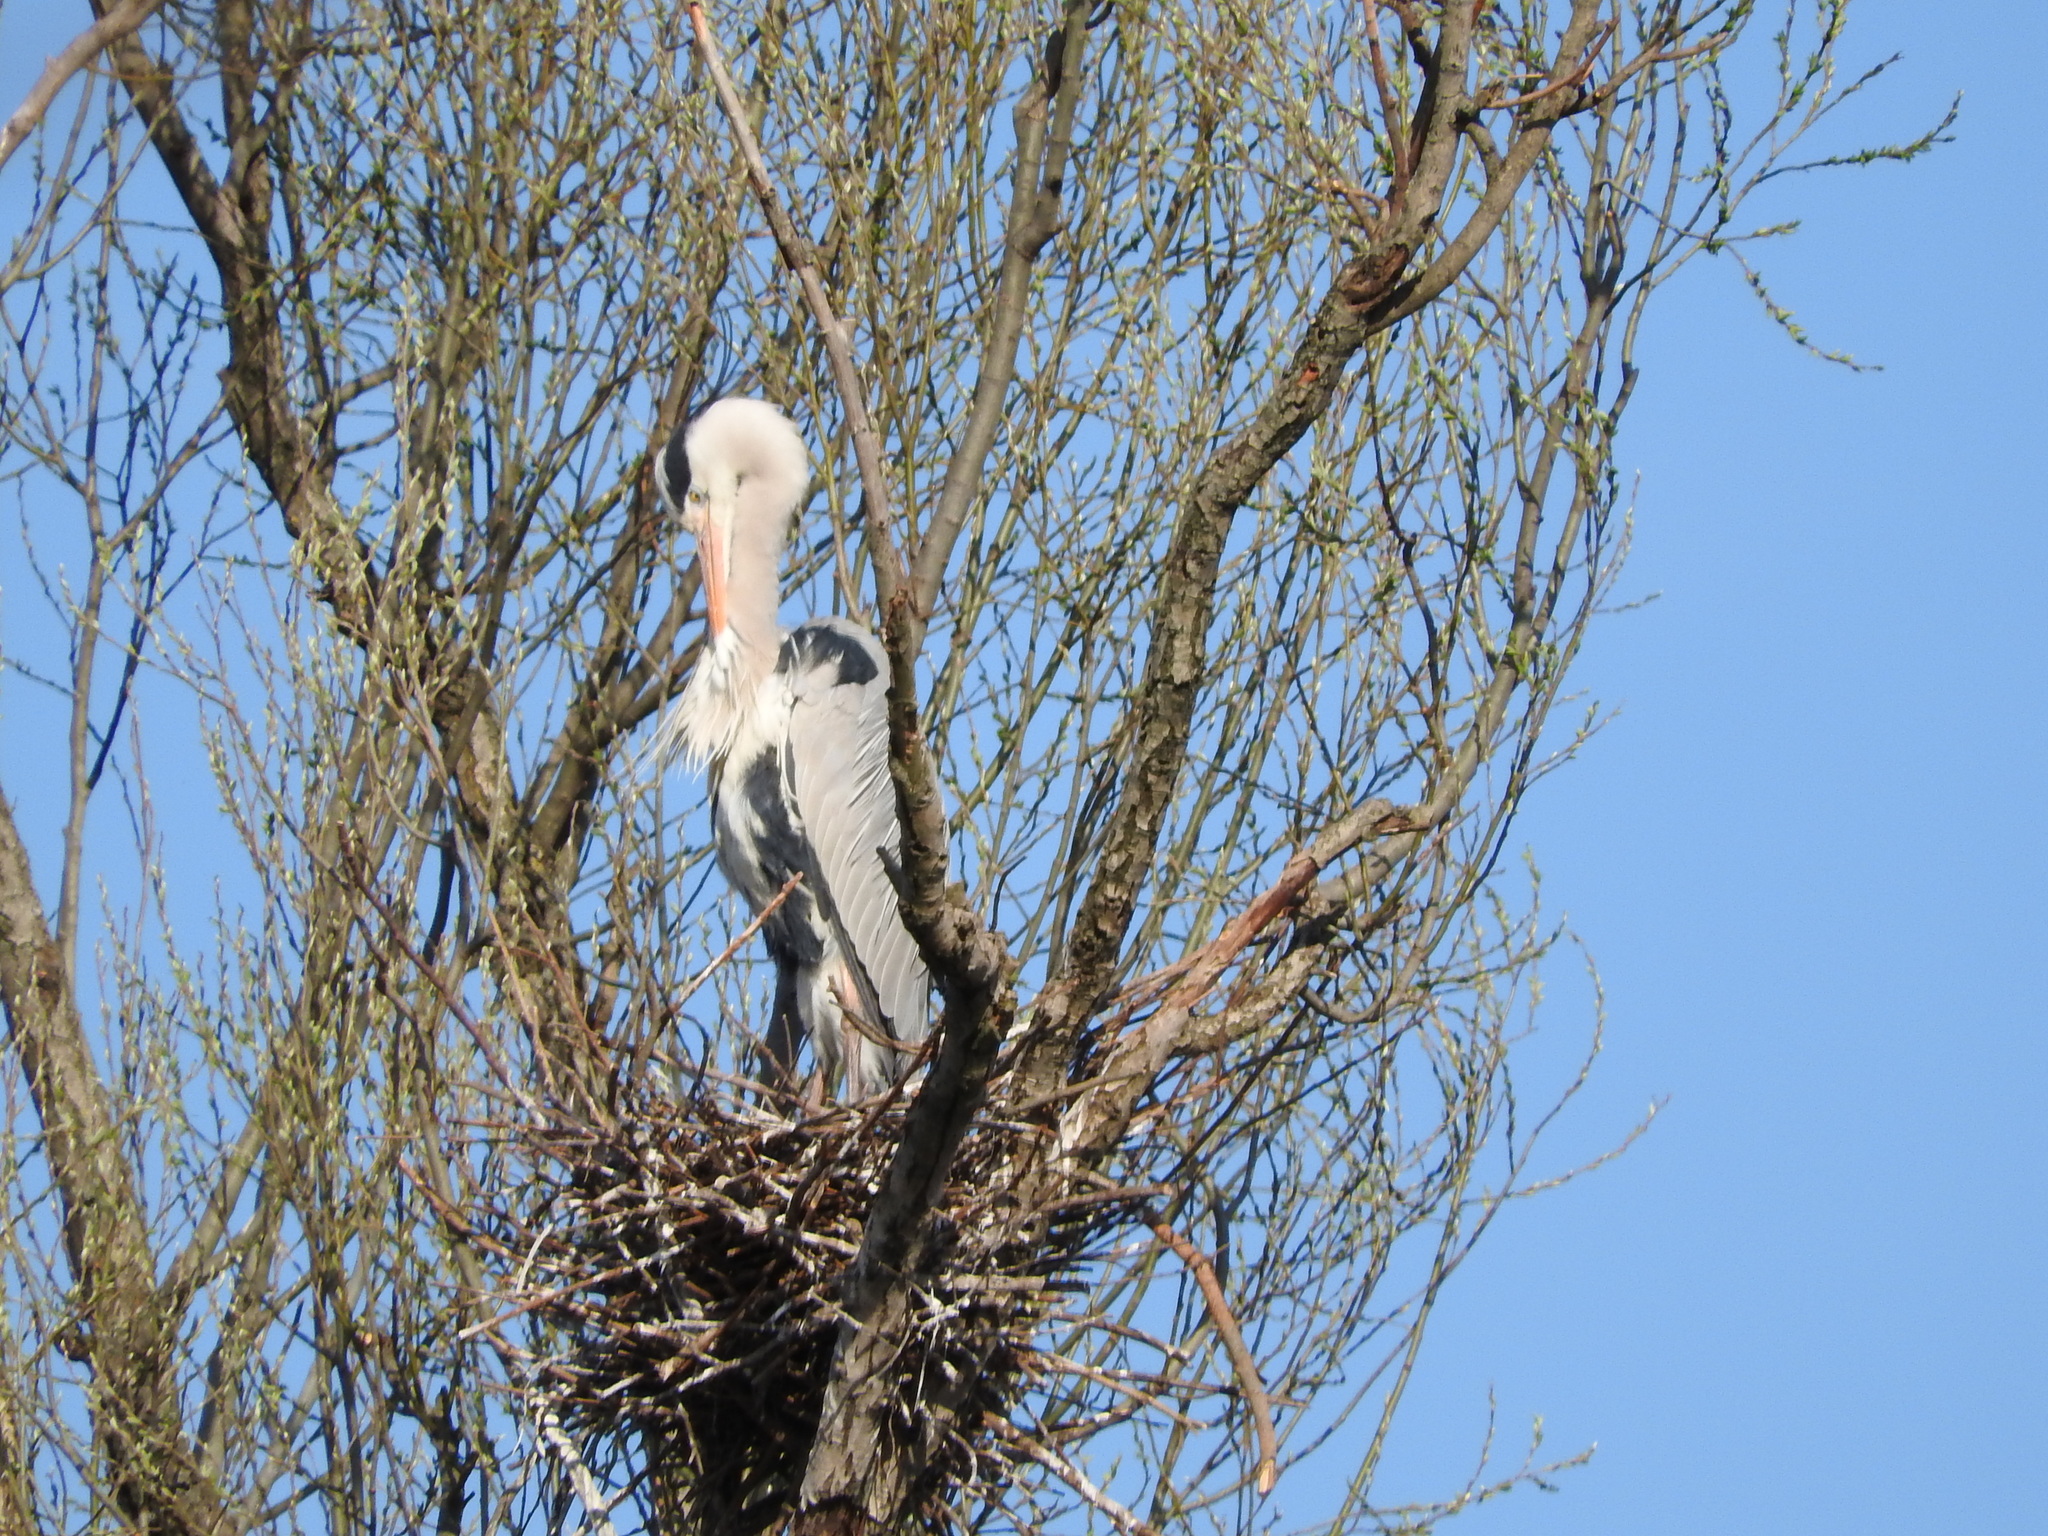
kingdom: Animalia
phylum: Chordata
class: Aves
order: Pelecaniformes
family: Ardeidae
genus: Ardea
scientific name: Ardea cinerea
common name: Grey heron
